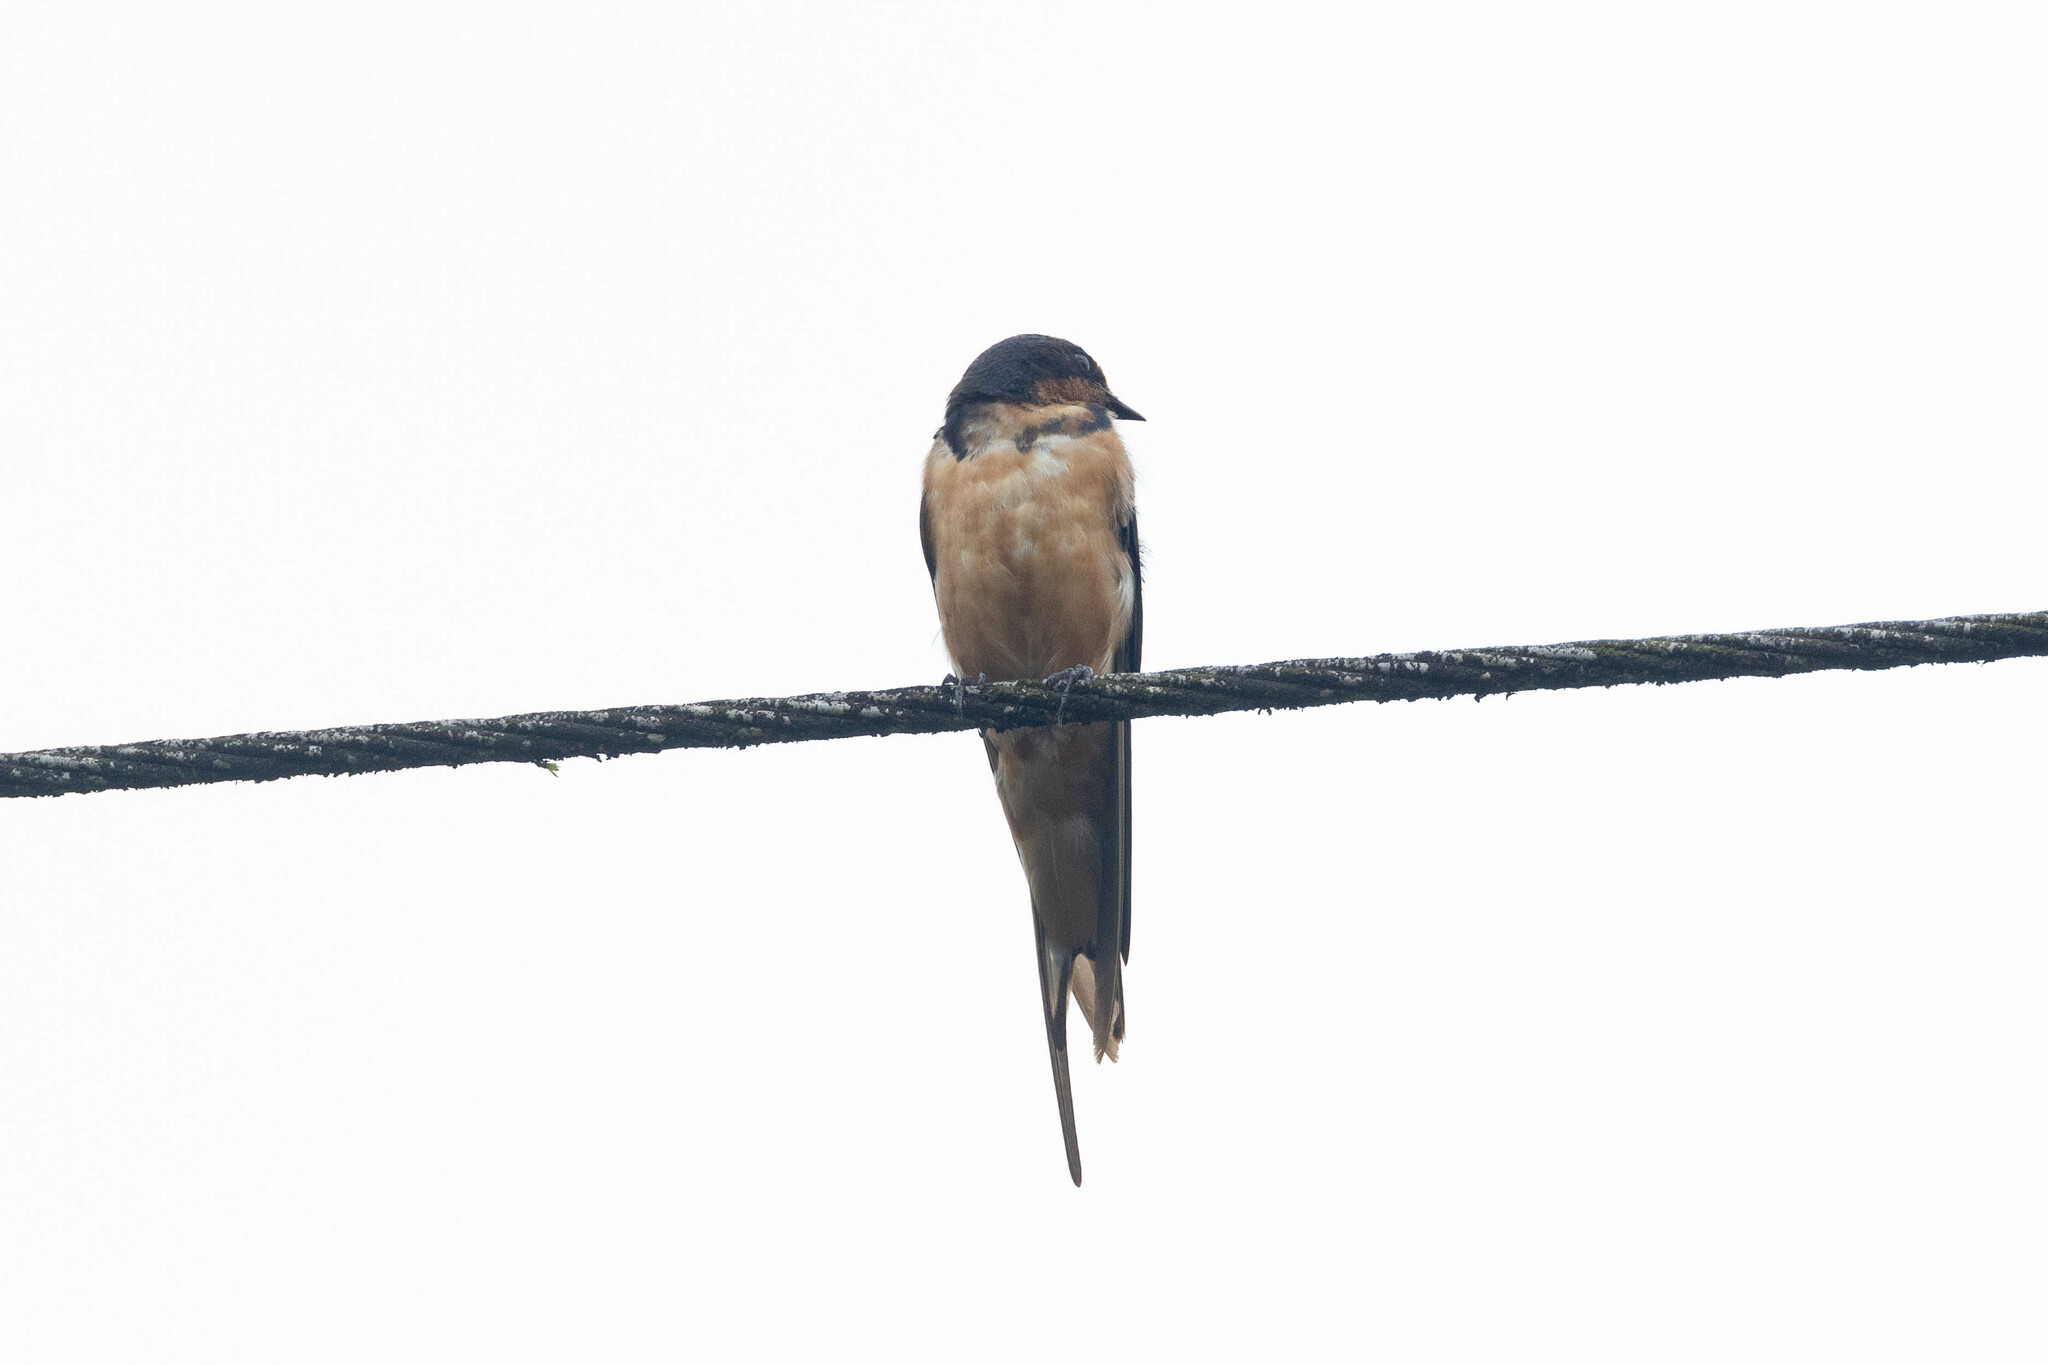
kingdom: Animalia
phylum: Chordata
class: Aves
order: Passeriformes
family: Hirundinidae
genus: Hirundo
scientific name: Hirundo rustica
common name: Barn swallow
